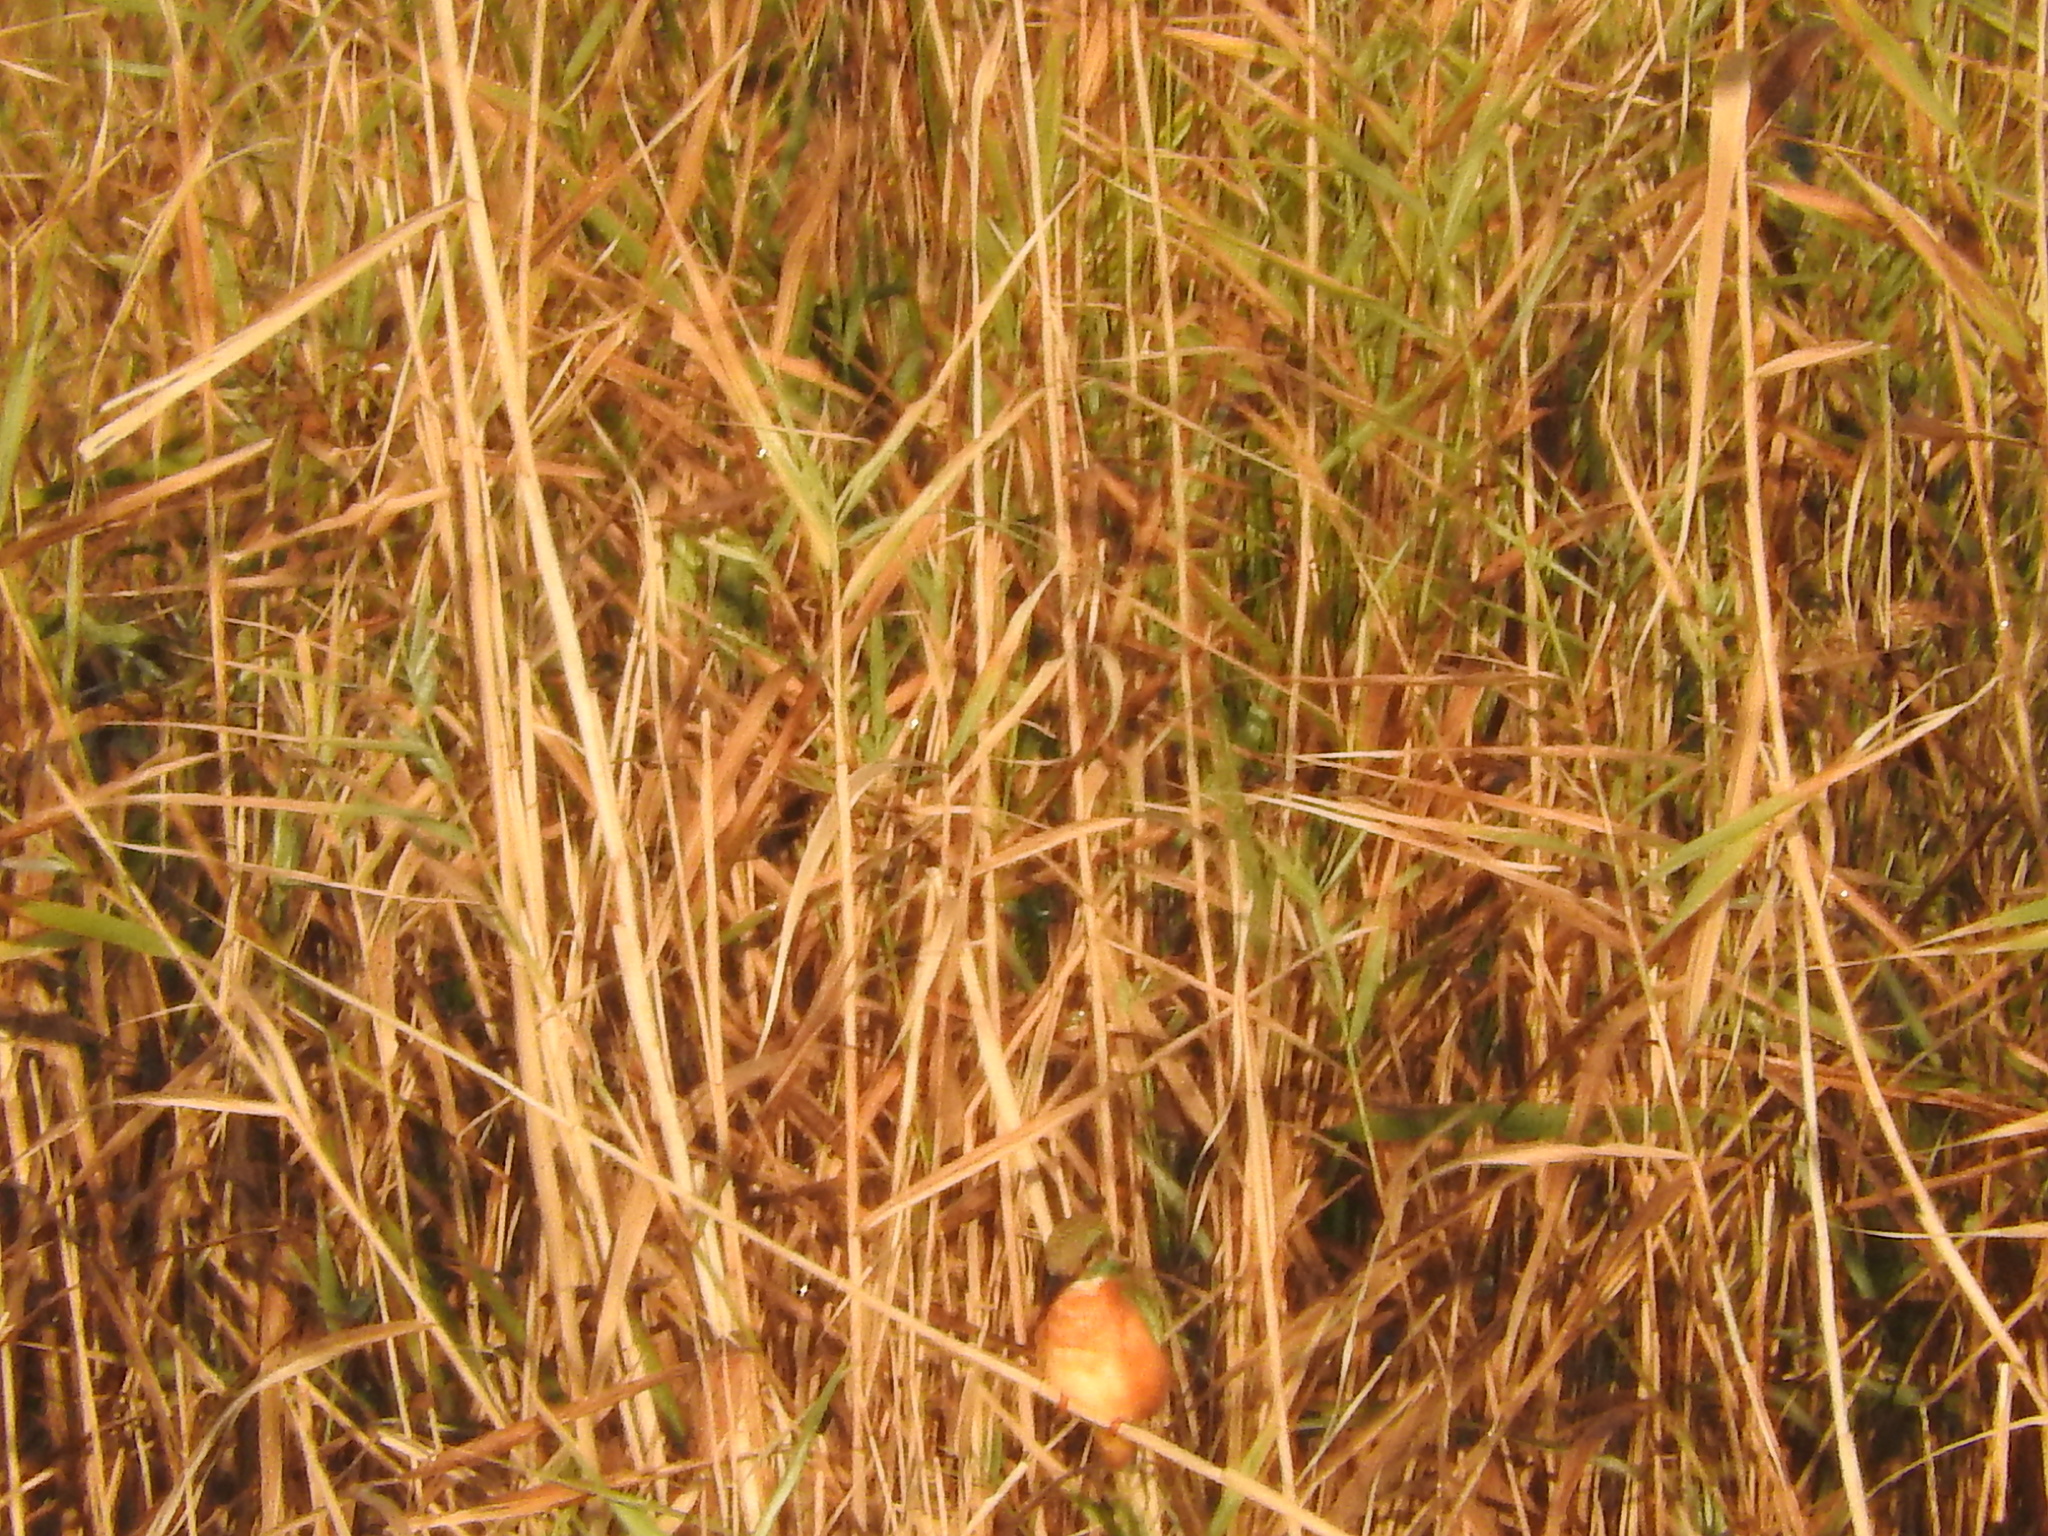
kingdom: Animalia
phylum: Chordata
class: Aves
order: Coraciiformes
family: Alcedinidae
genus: Alcedo
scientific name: Alcedo atthis
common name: Common kingfisher
